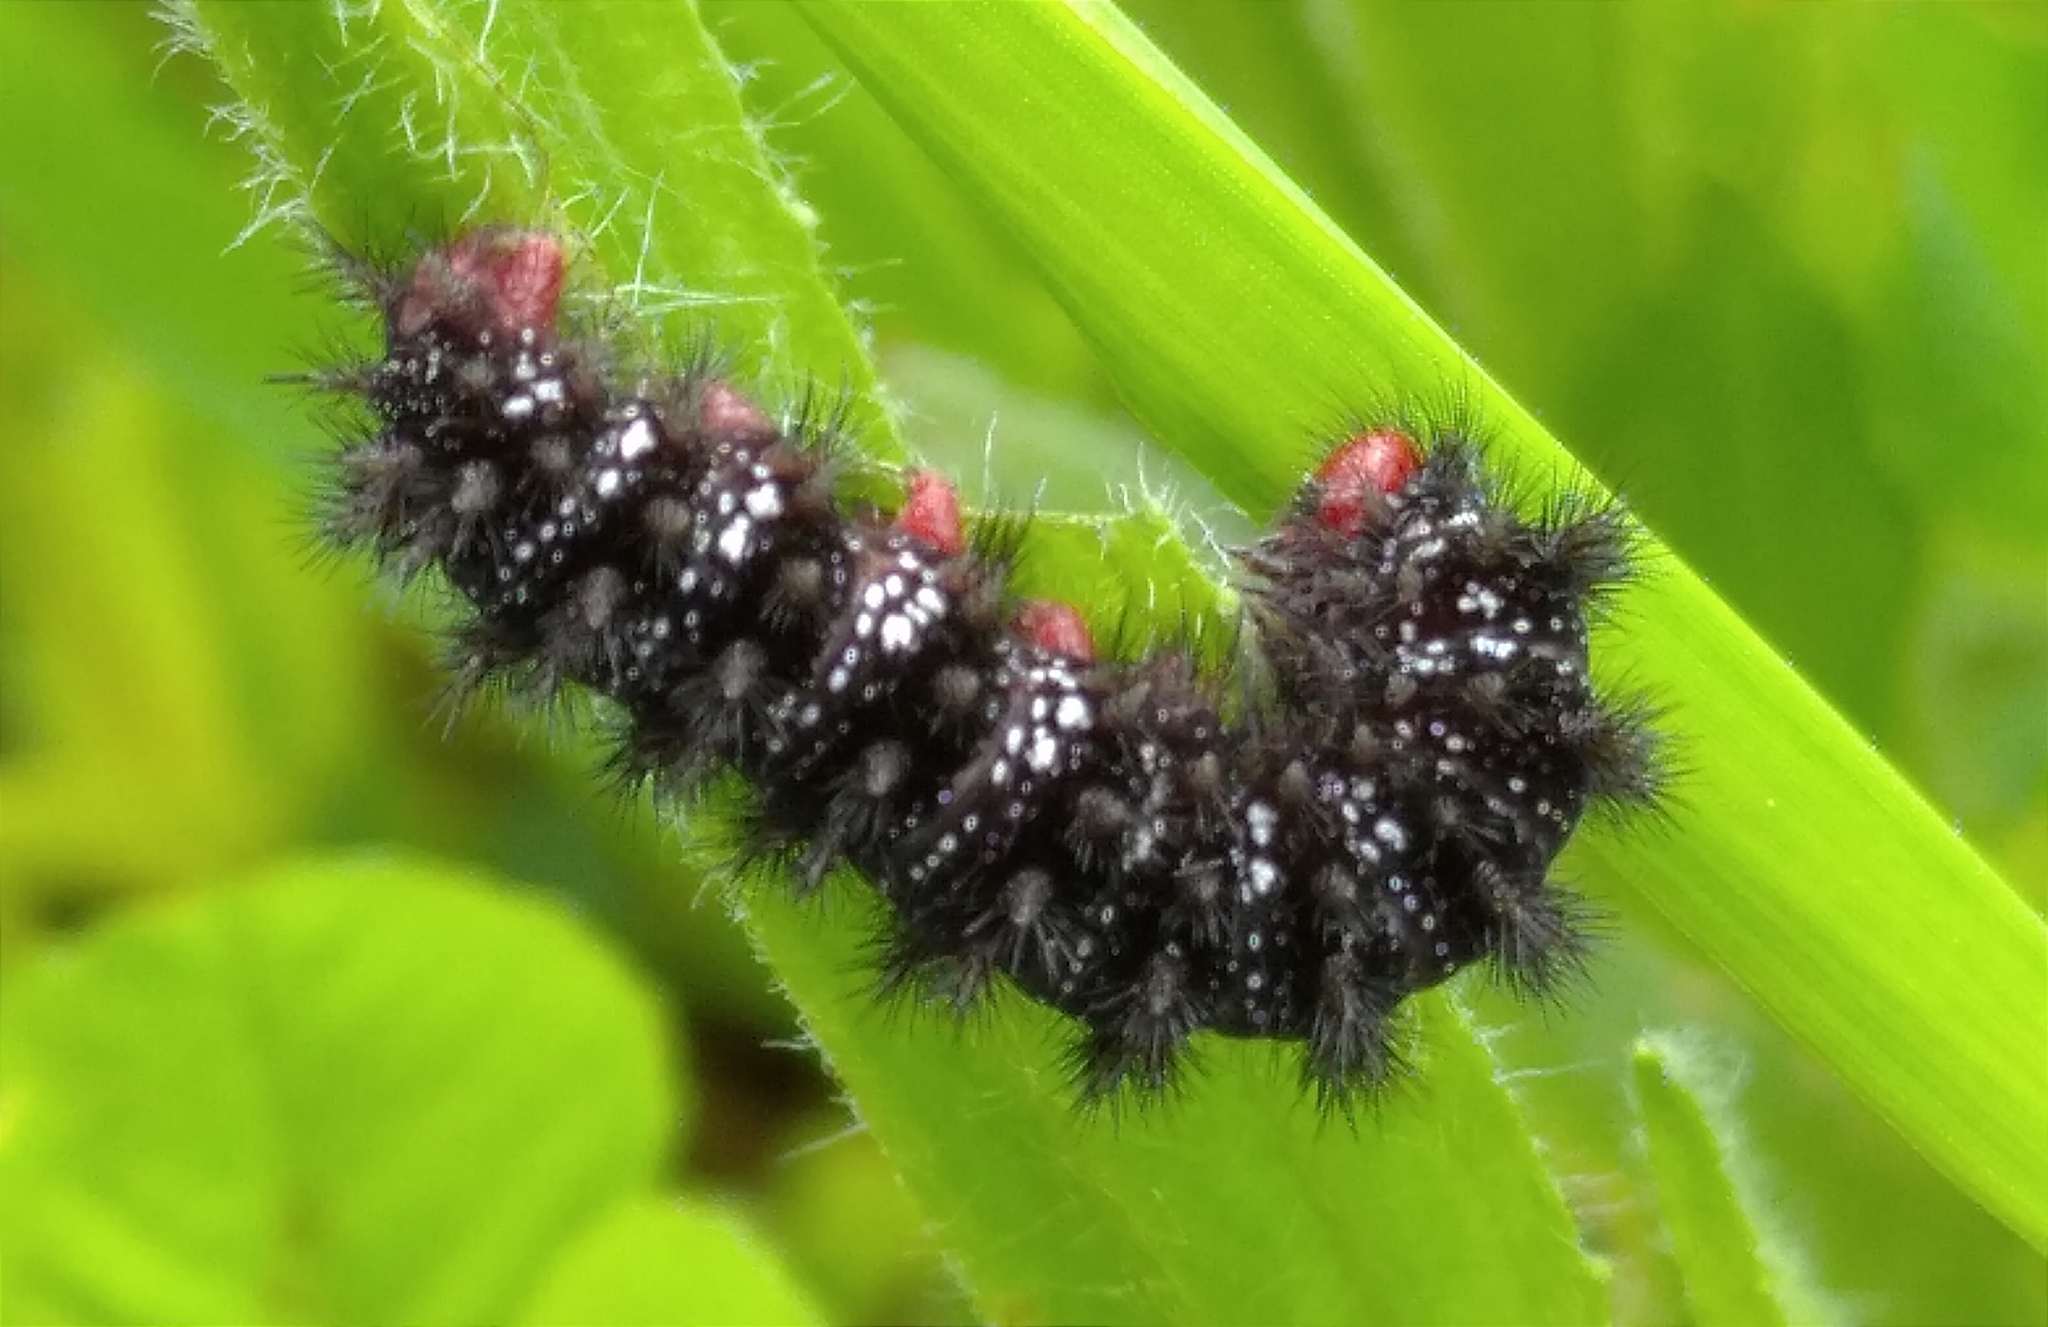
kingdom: Animalia
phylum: Arthropoda
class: Insecta
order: Lepidoptera
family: Nymphalidae
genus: Melitaea
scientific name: Melitaea cinxia
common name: Glanville fritillary
